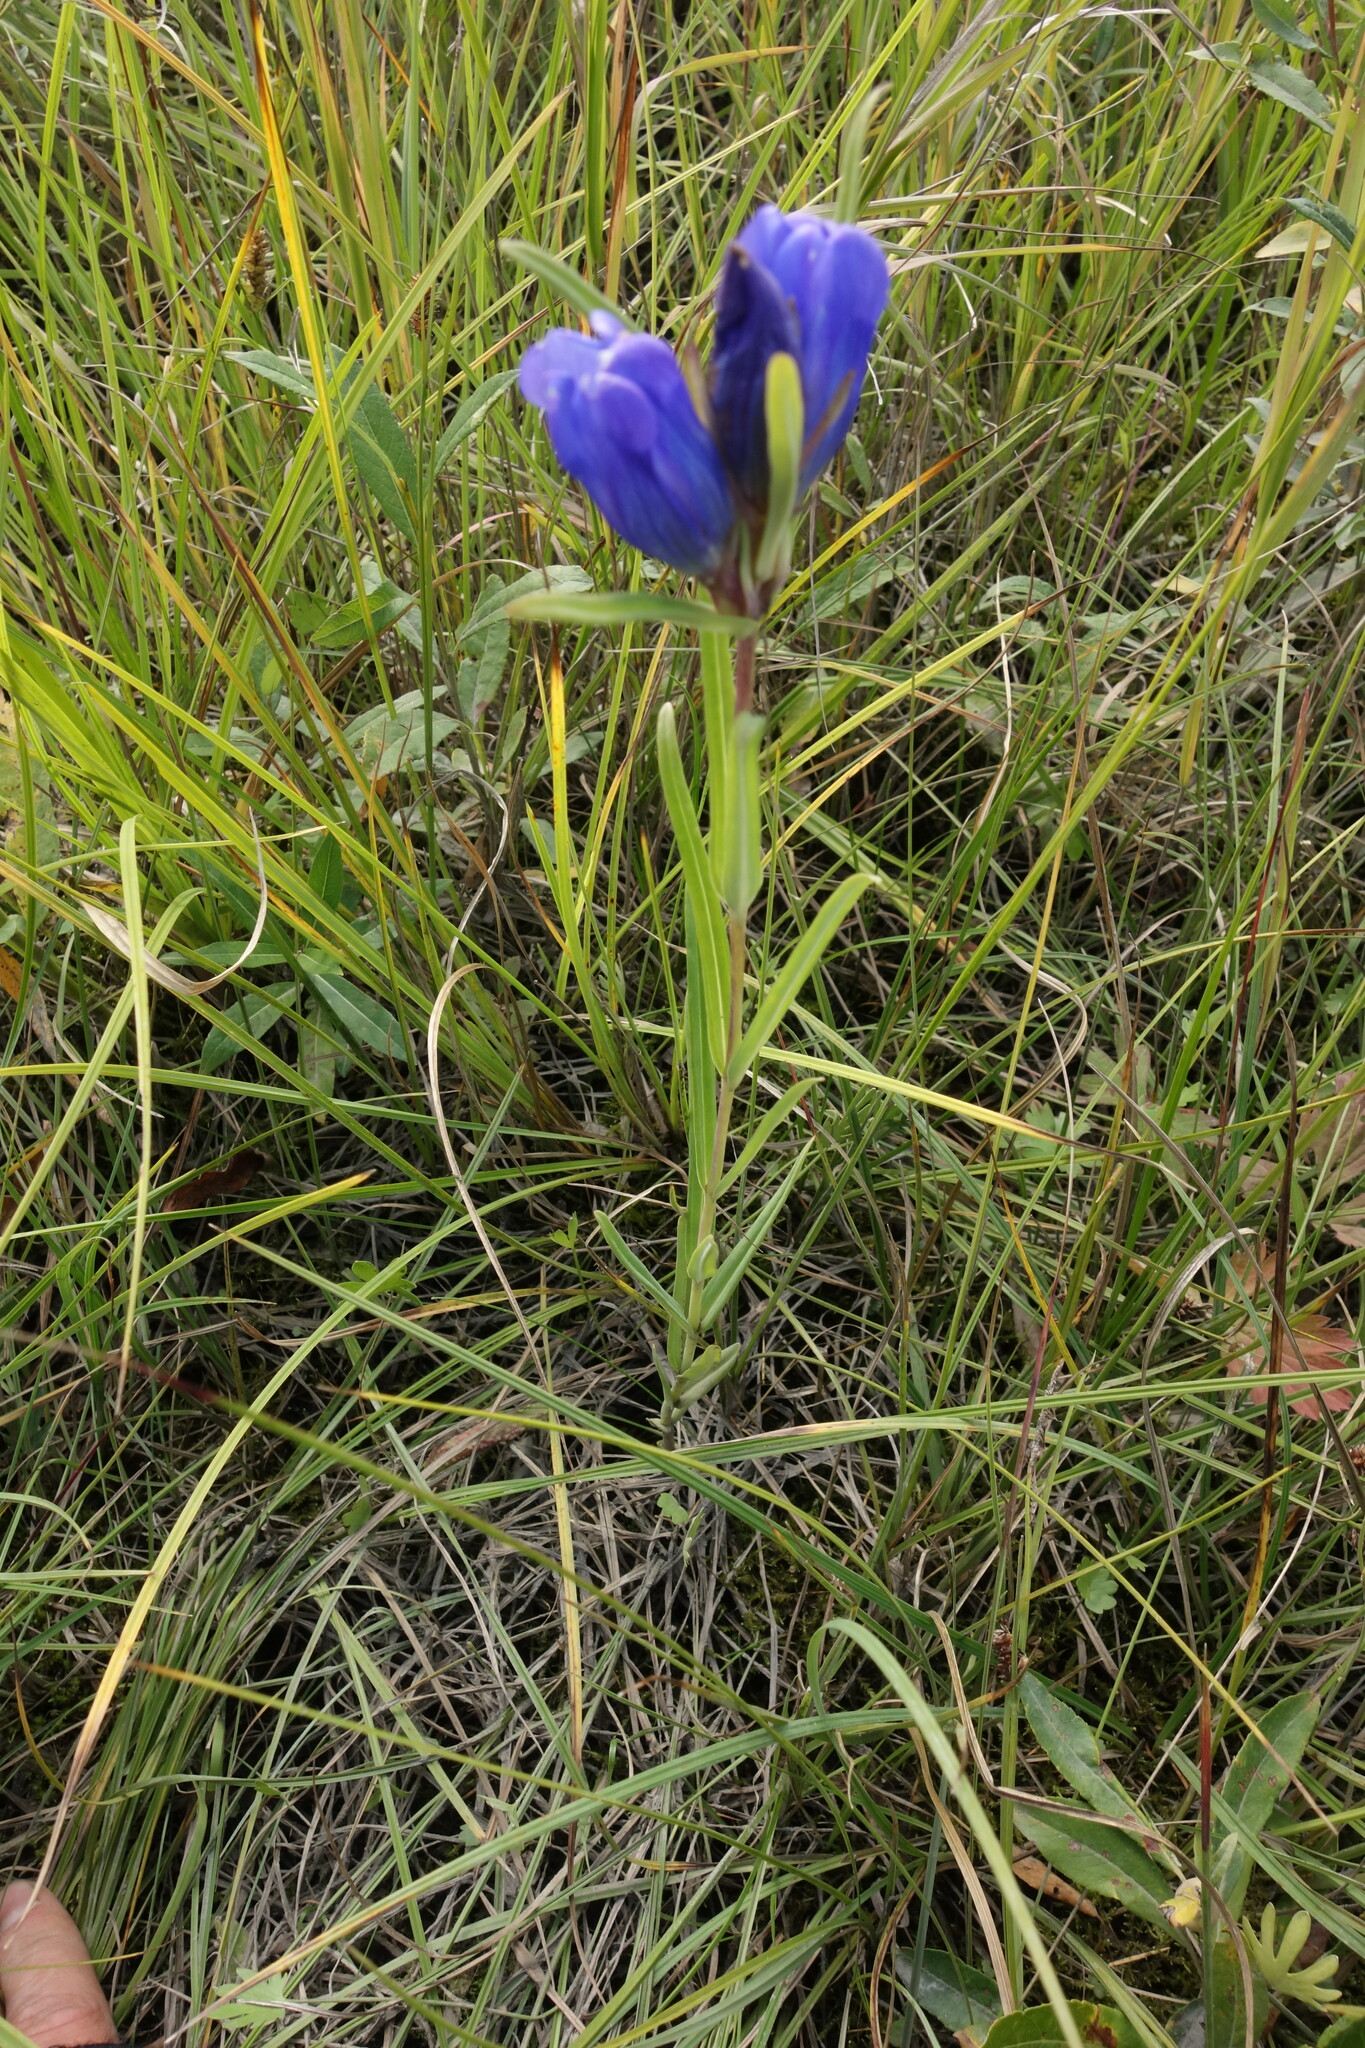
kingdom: Plantae
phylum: Tracheophyta
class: Magnoliopsida
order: Gentianales
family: Gentianaceae
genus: Gentiana
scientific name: Gentiana triflora
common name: Three-flower gentian
